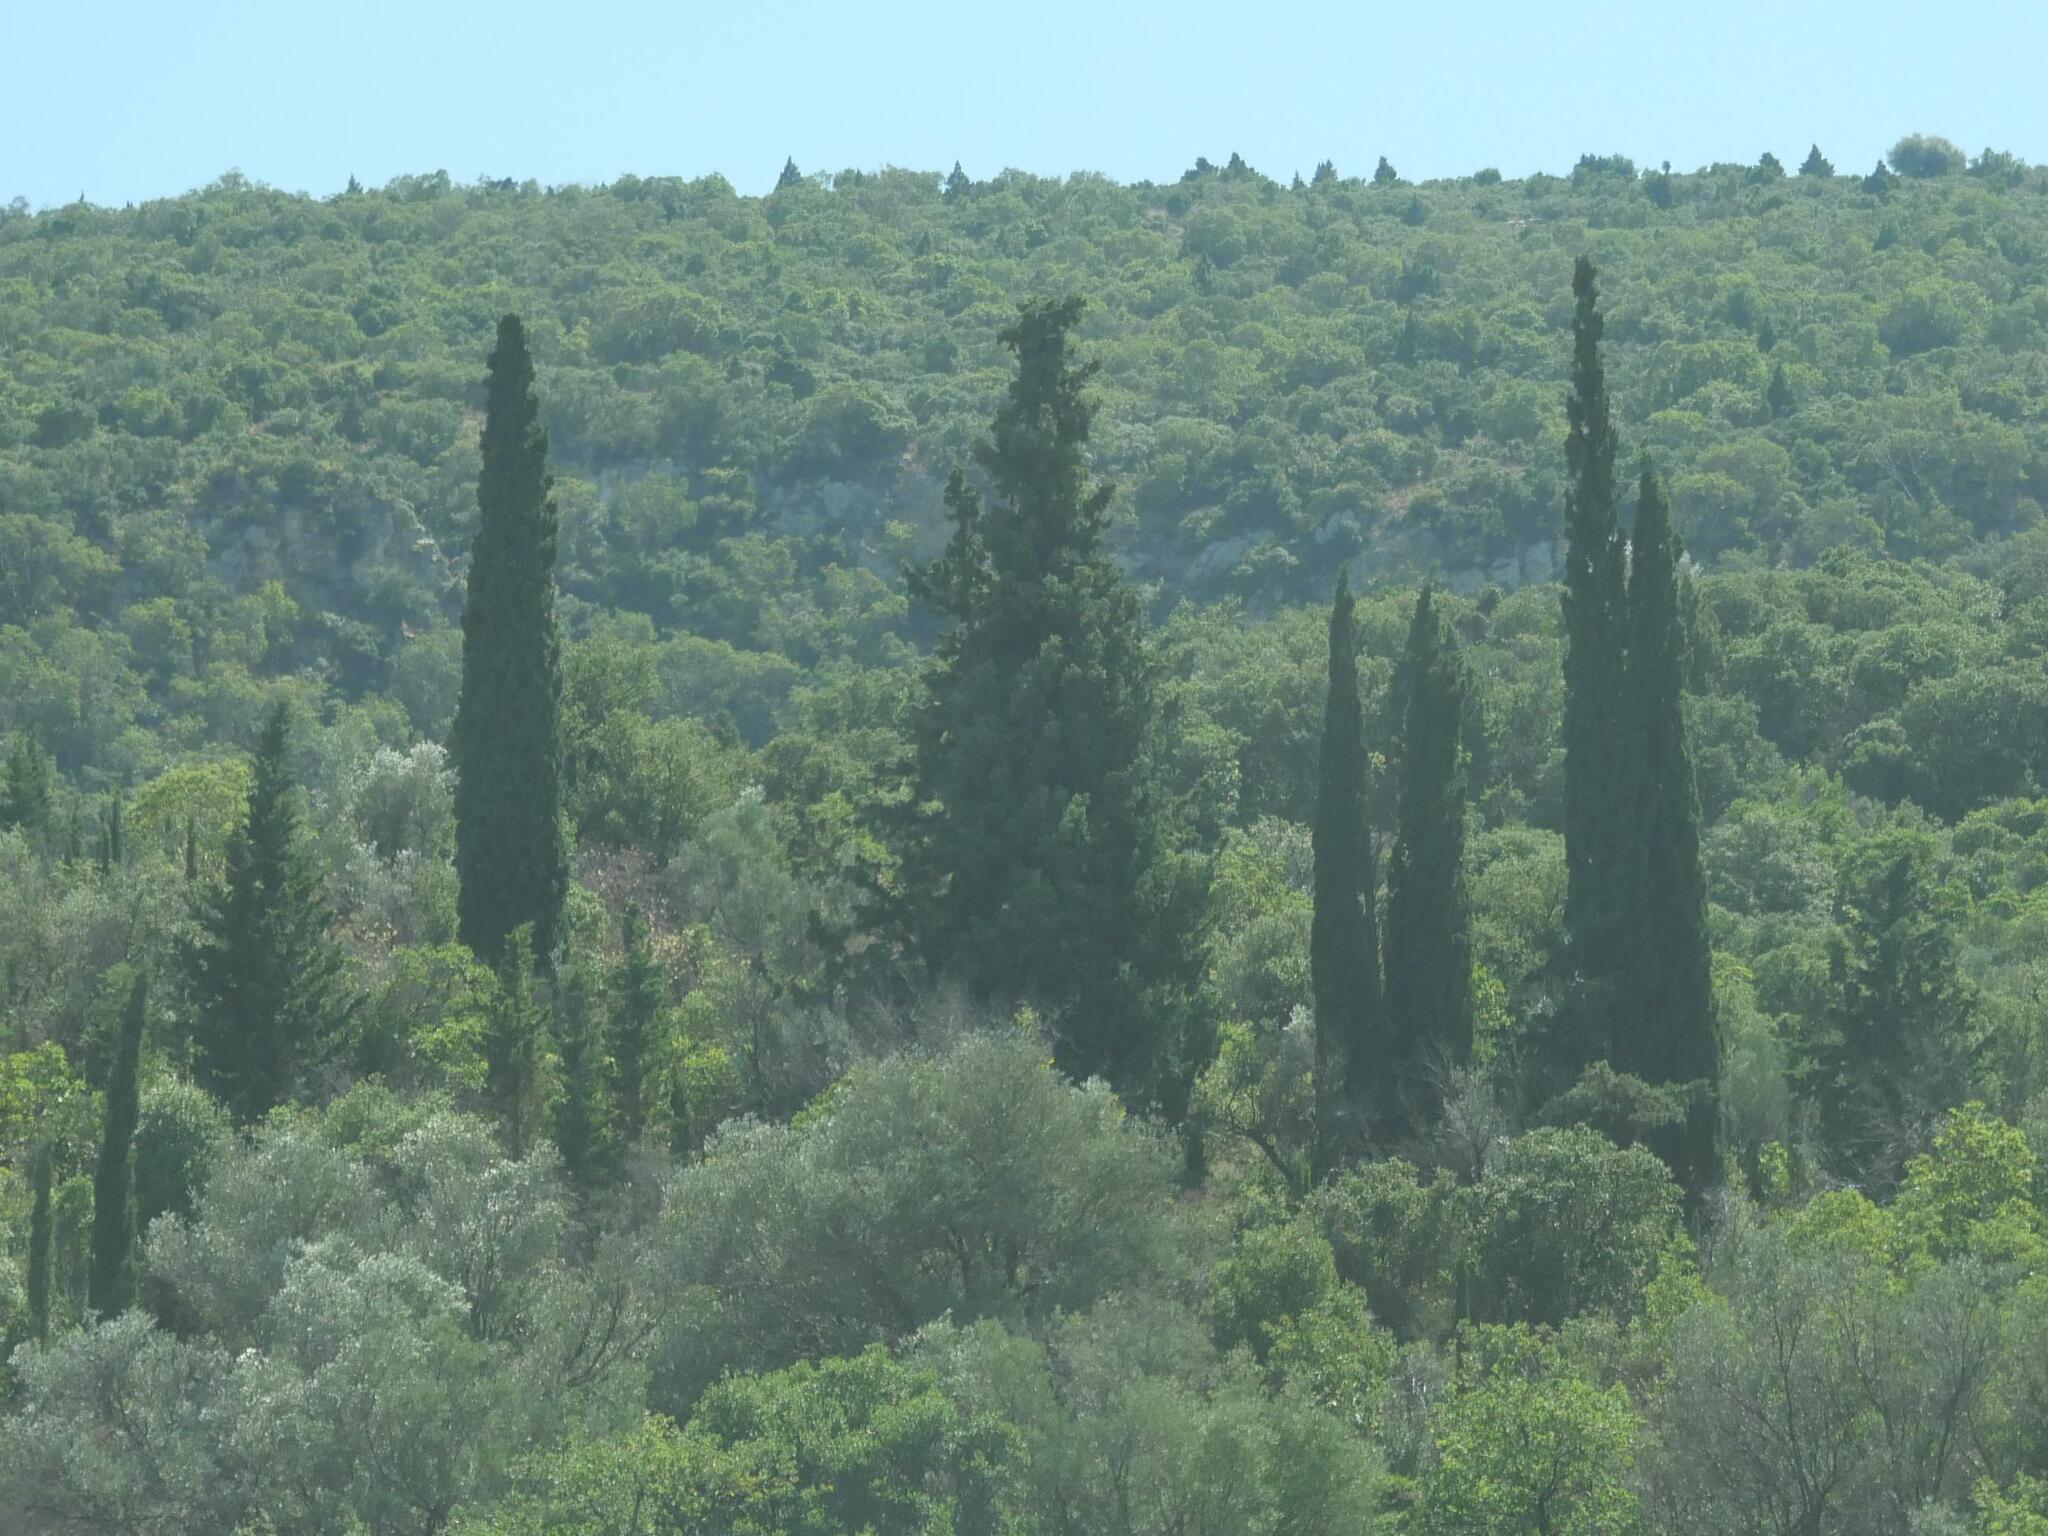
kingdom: Plantae
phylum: Tracheophyta
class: Pinopsida
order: Pinales
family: Cupressaceae
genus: Cupressus
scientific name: Cupressus sempervirens
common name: Italian cypress
